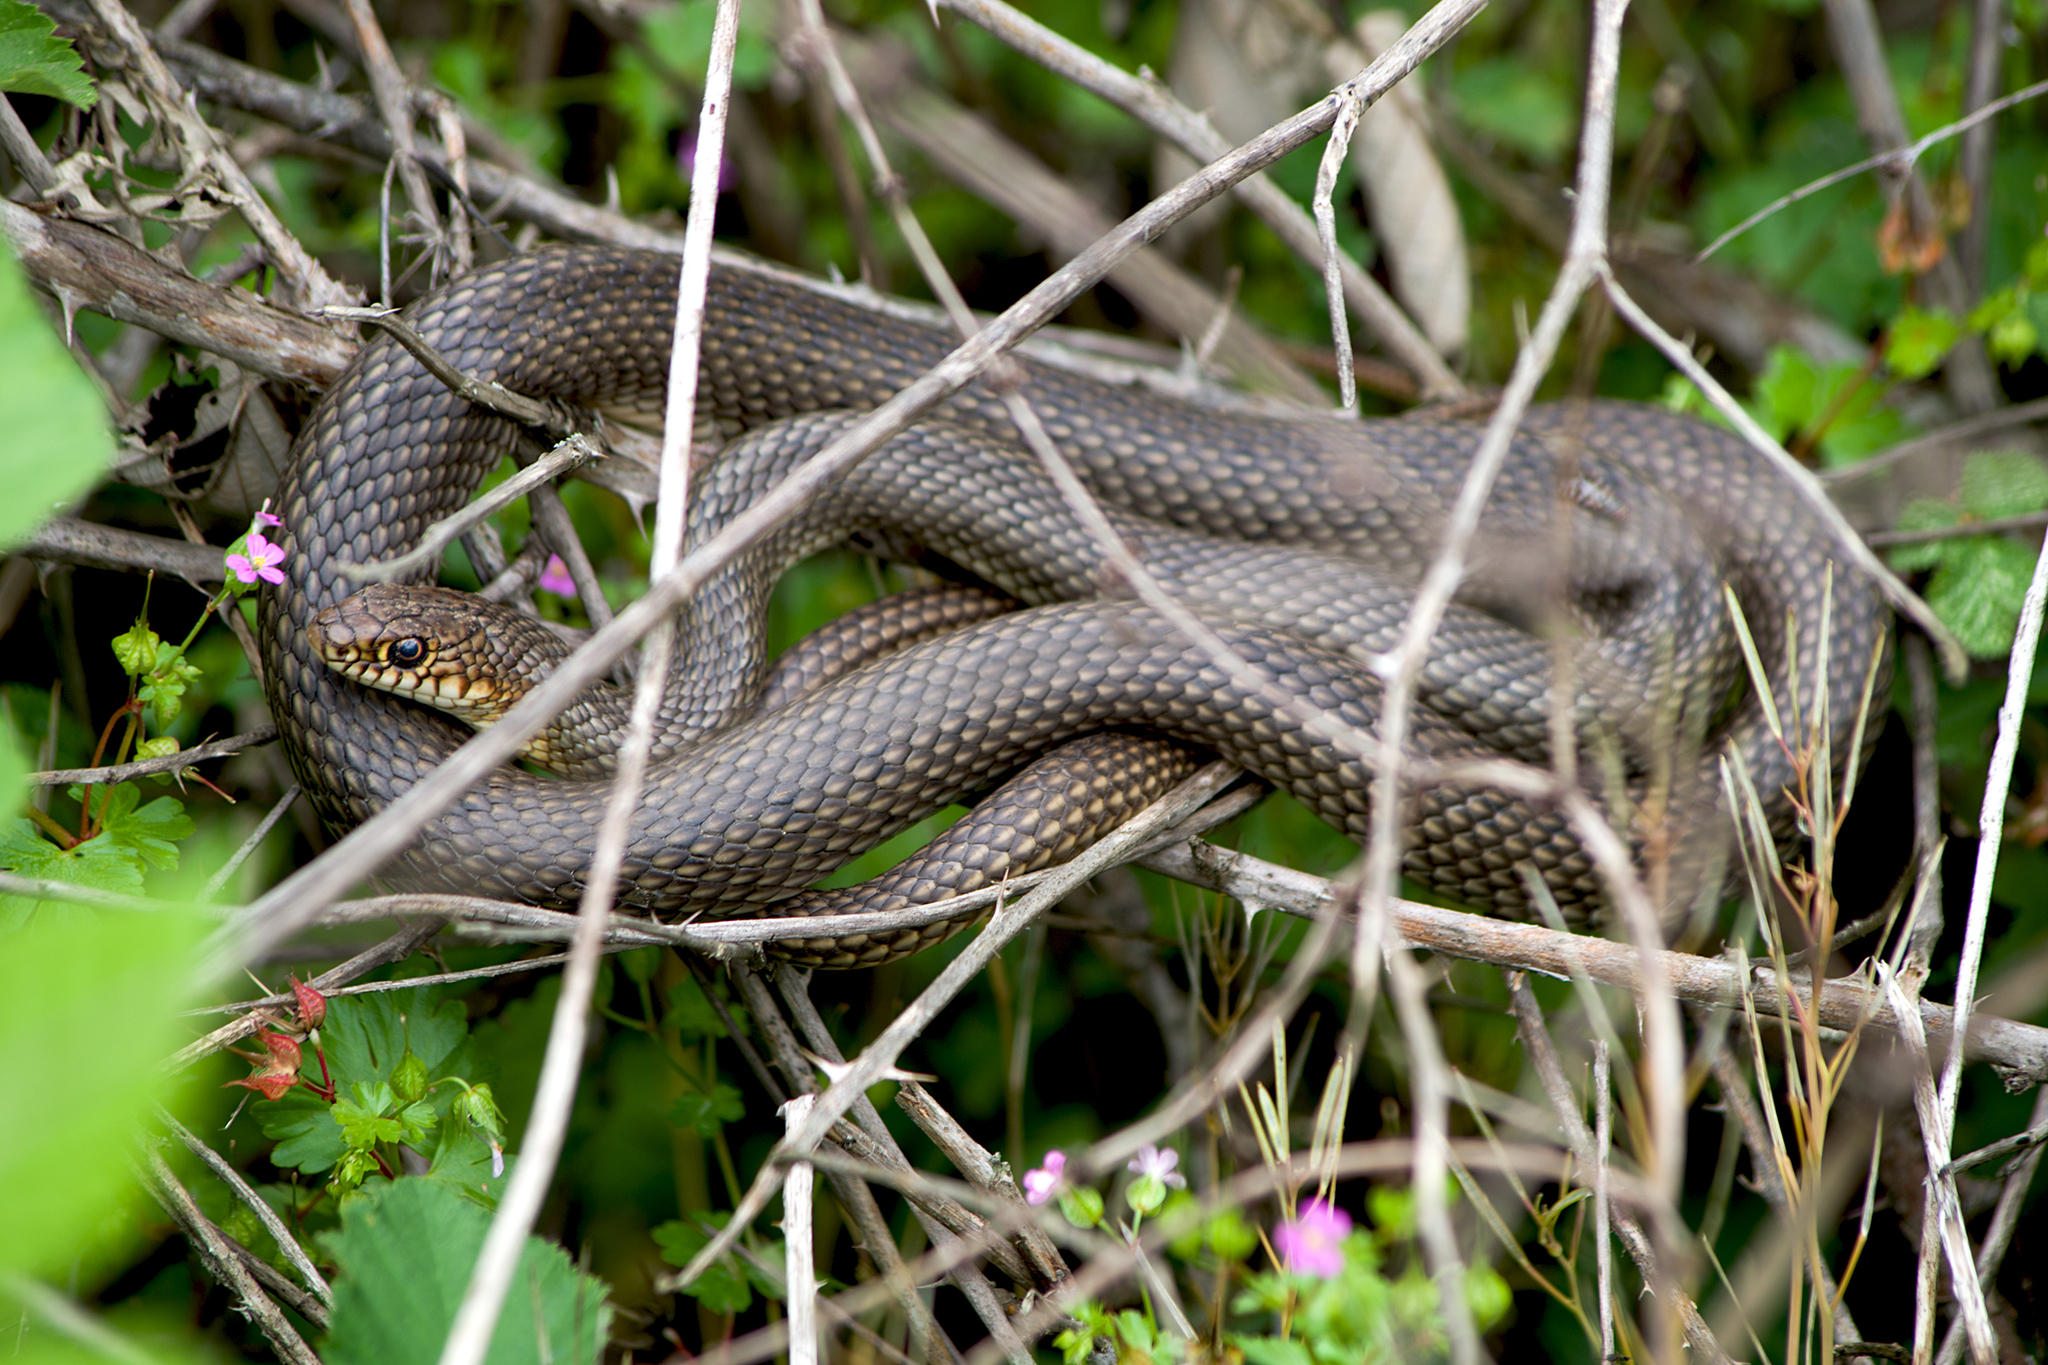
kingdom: Animalia
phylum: Chordata
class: Squamata
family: Colubridae
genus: Dolichophis
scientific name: Dolichophis caspius
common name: Large whip snake
